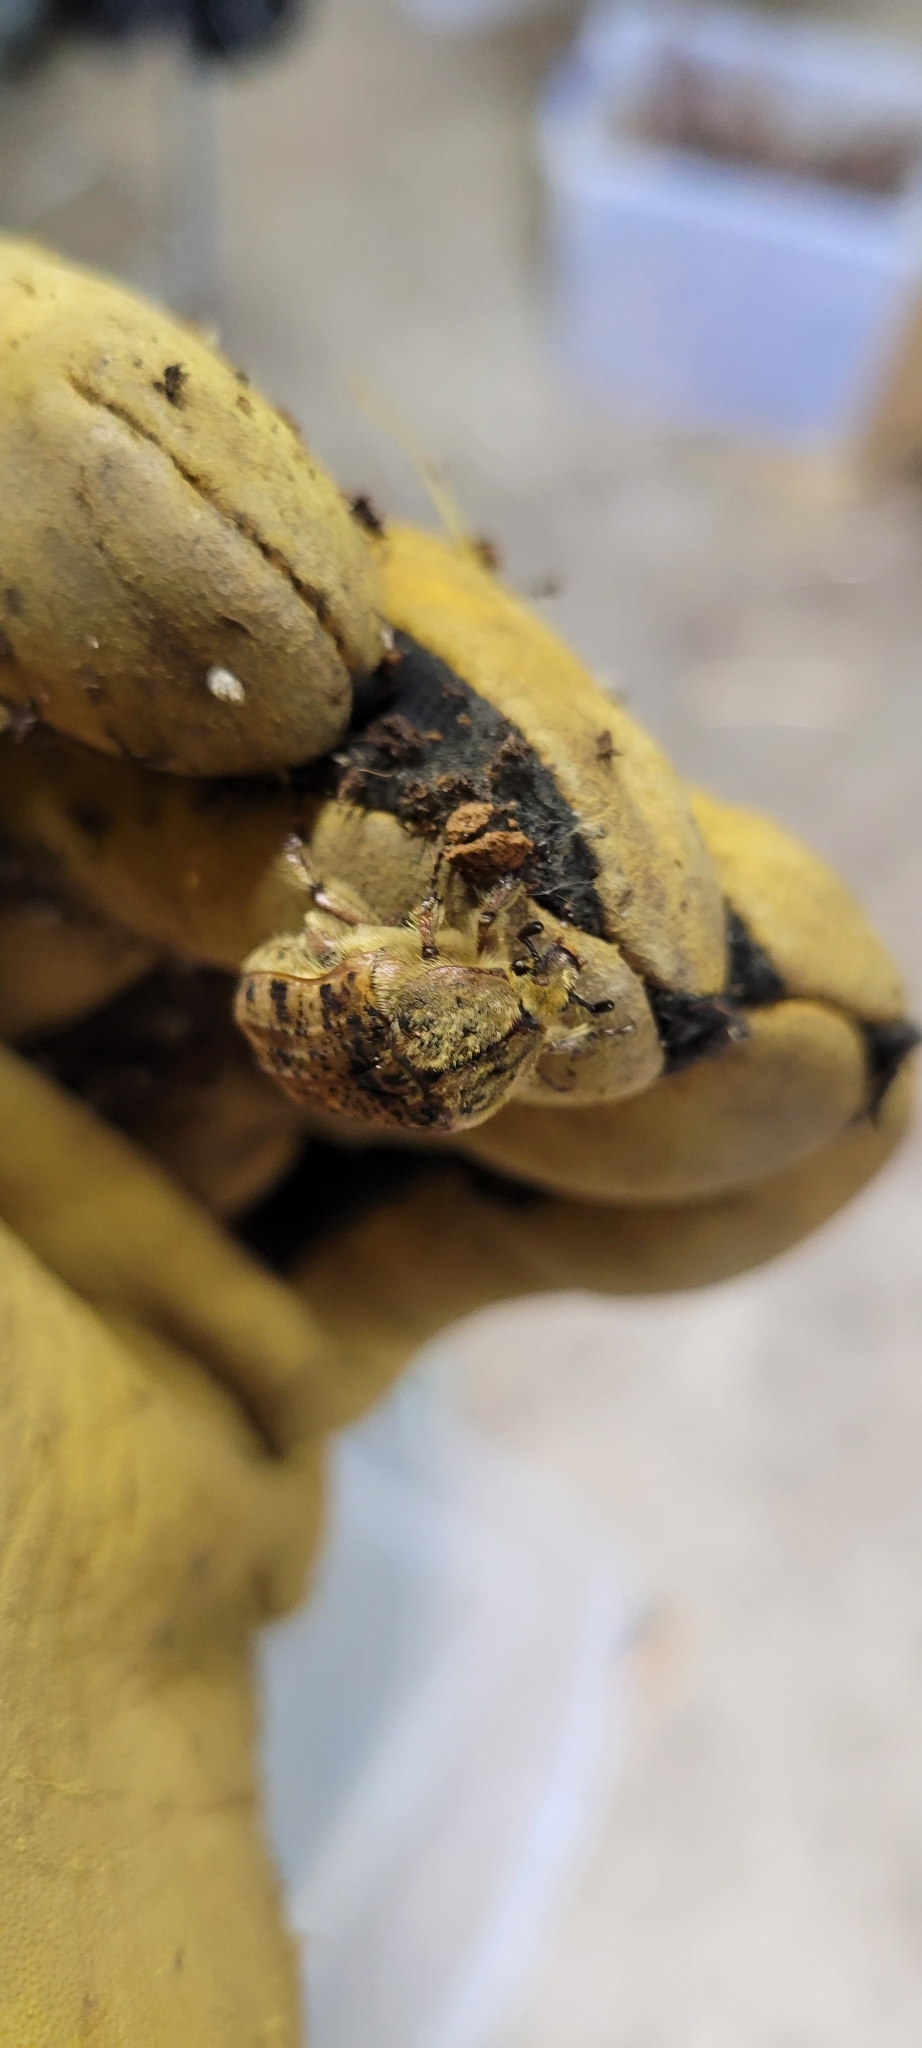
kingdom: Animalia
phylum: Arthropoda
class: Insecta
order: Coleoptera
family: Scarabaeidae
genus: Euphoria
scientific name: Euphoria inda
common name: Bumble flower beetle
